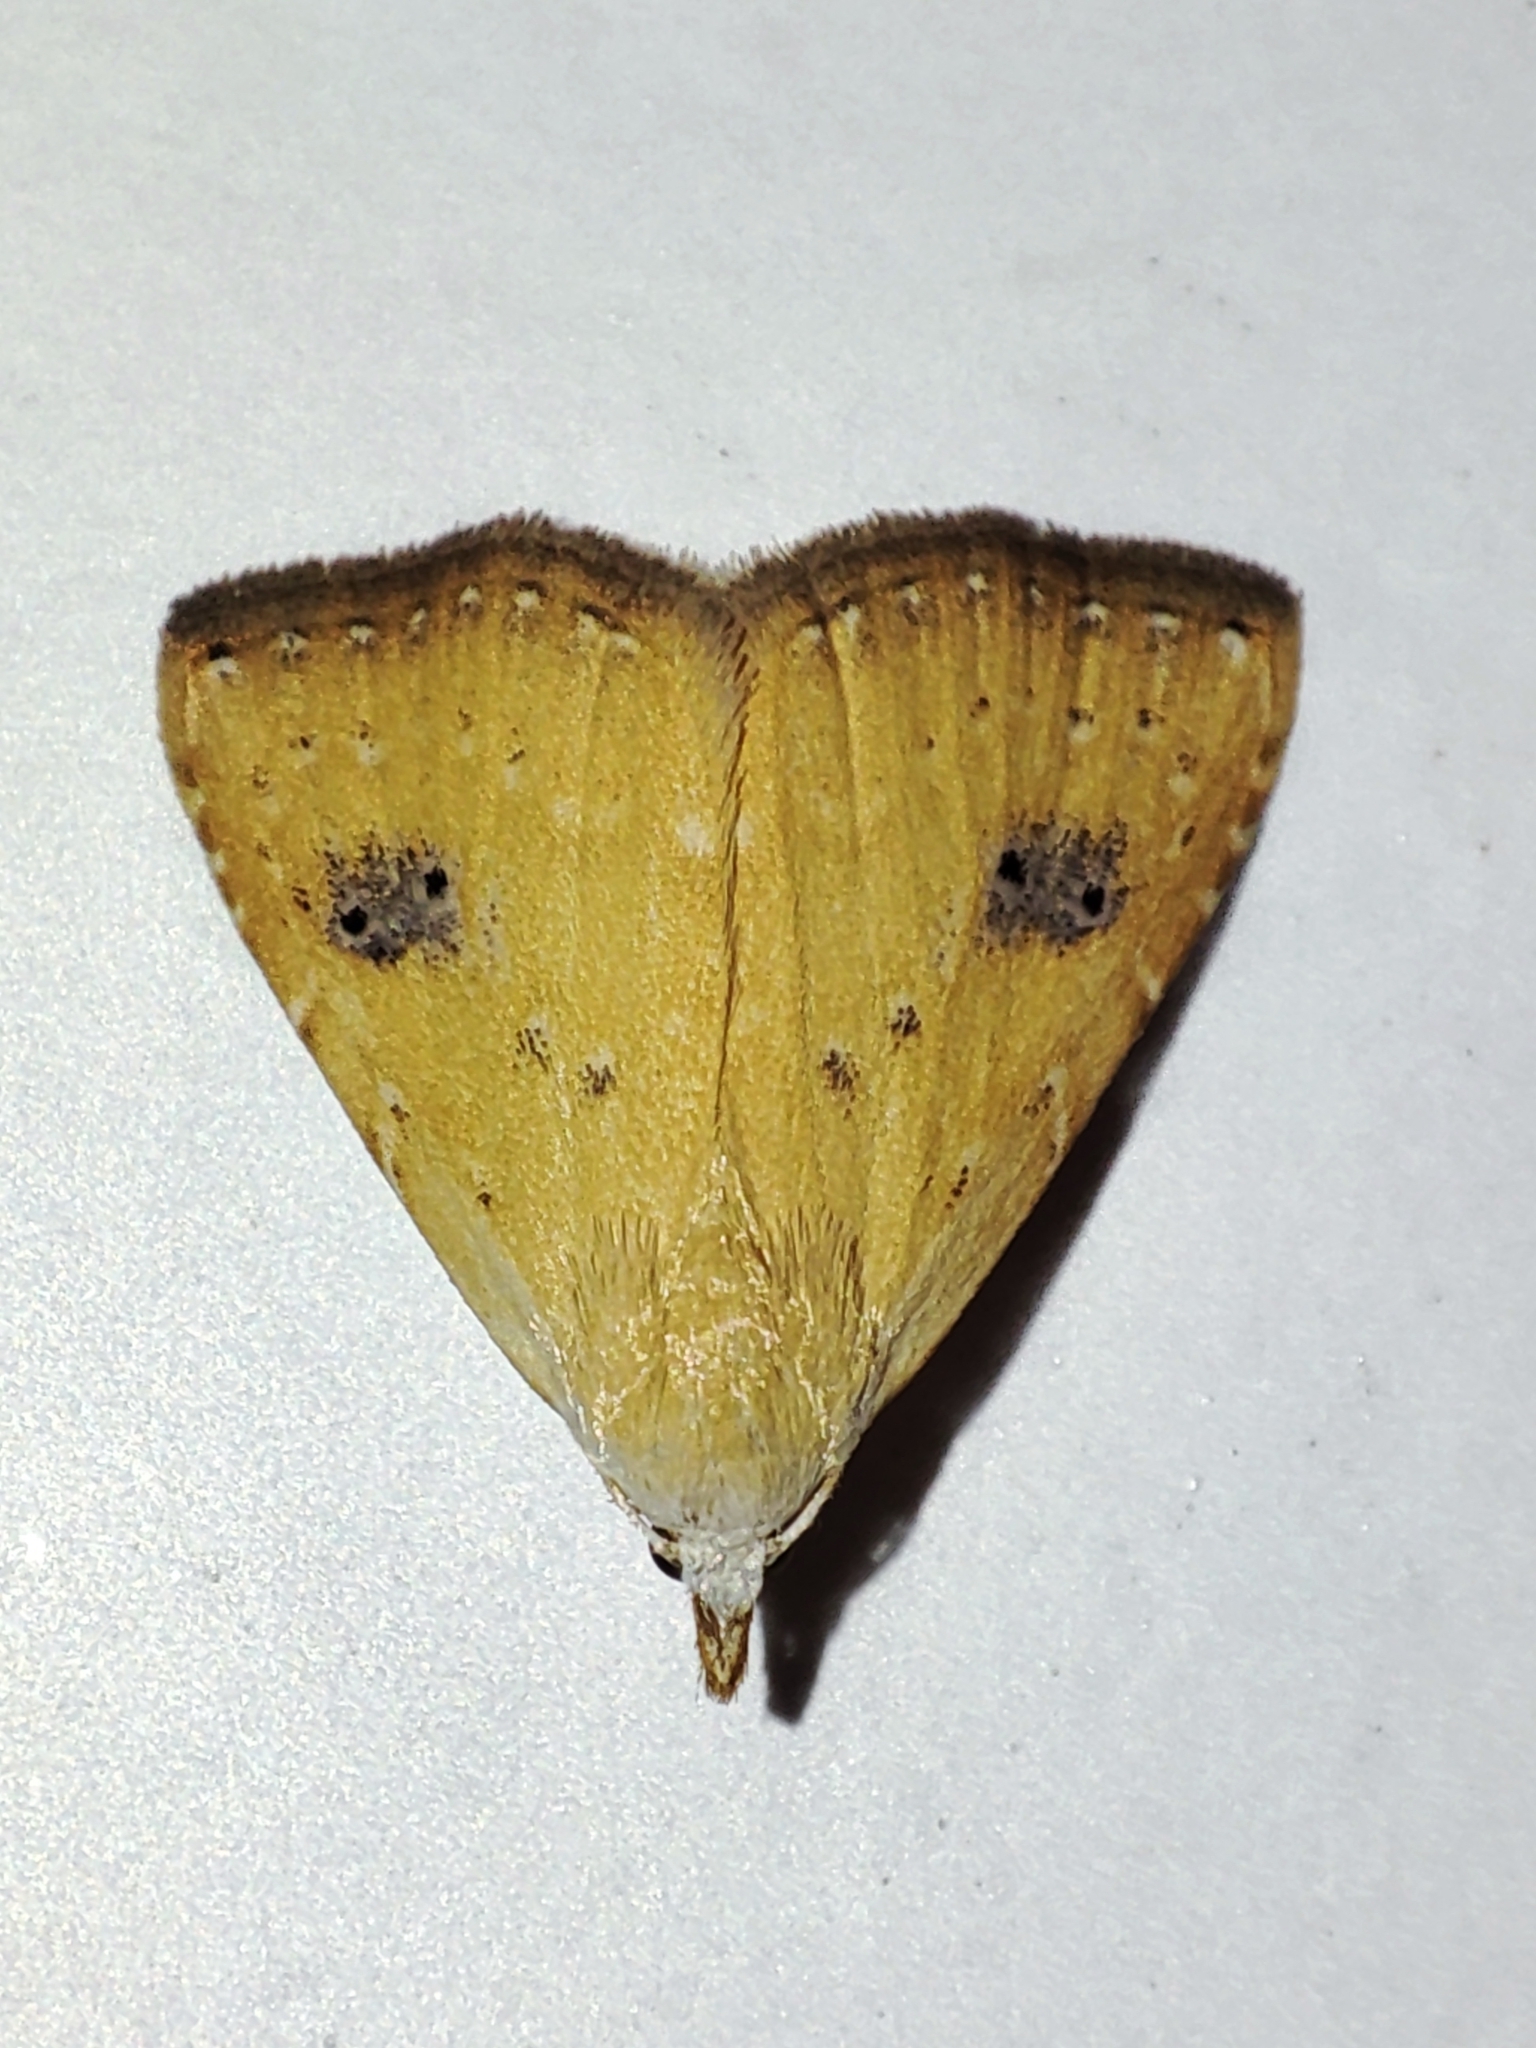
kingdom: Animalia
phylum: Arthropoda
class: Insecta
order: Lepidoptera
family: Erebidae
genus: Rivula
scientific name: Rivula sericealis
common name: Straw dot
